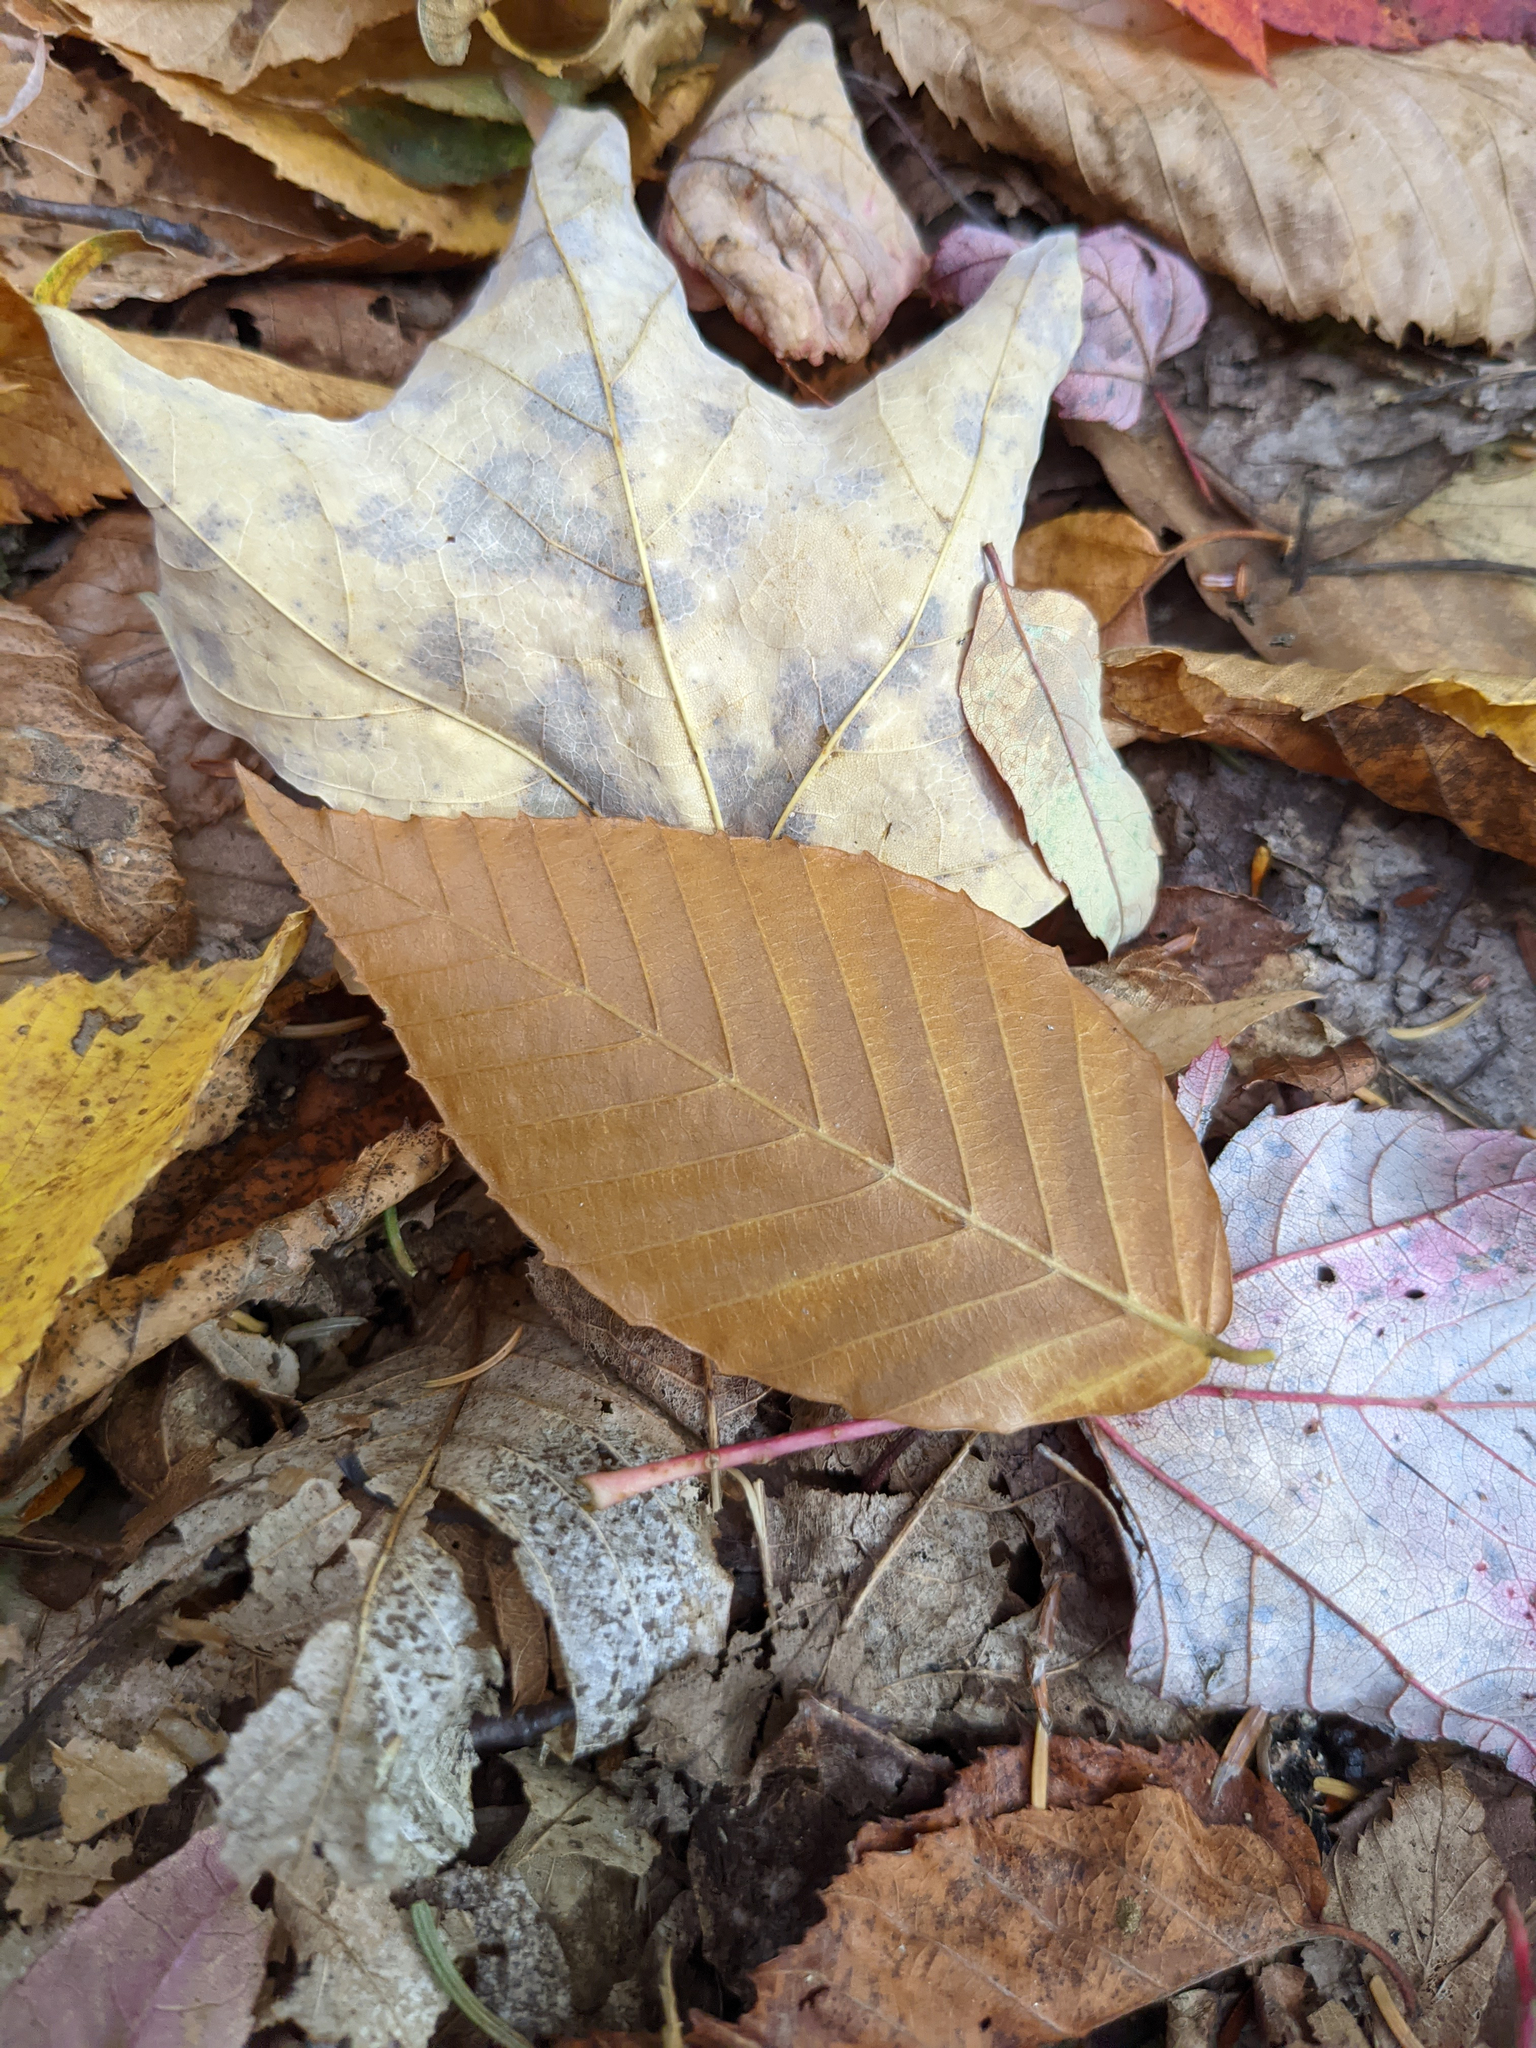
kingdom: Plantae
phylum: Tracheophyta
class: Magnoliopsida
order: Fagales
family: Fagaceae
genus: Fagus
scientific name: Fagus grandifolia
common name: American beech
